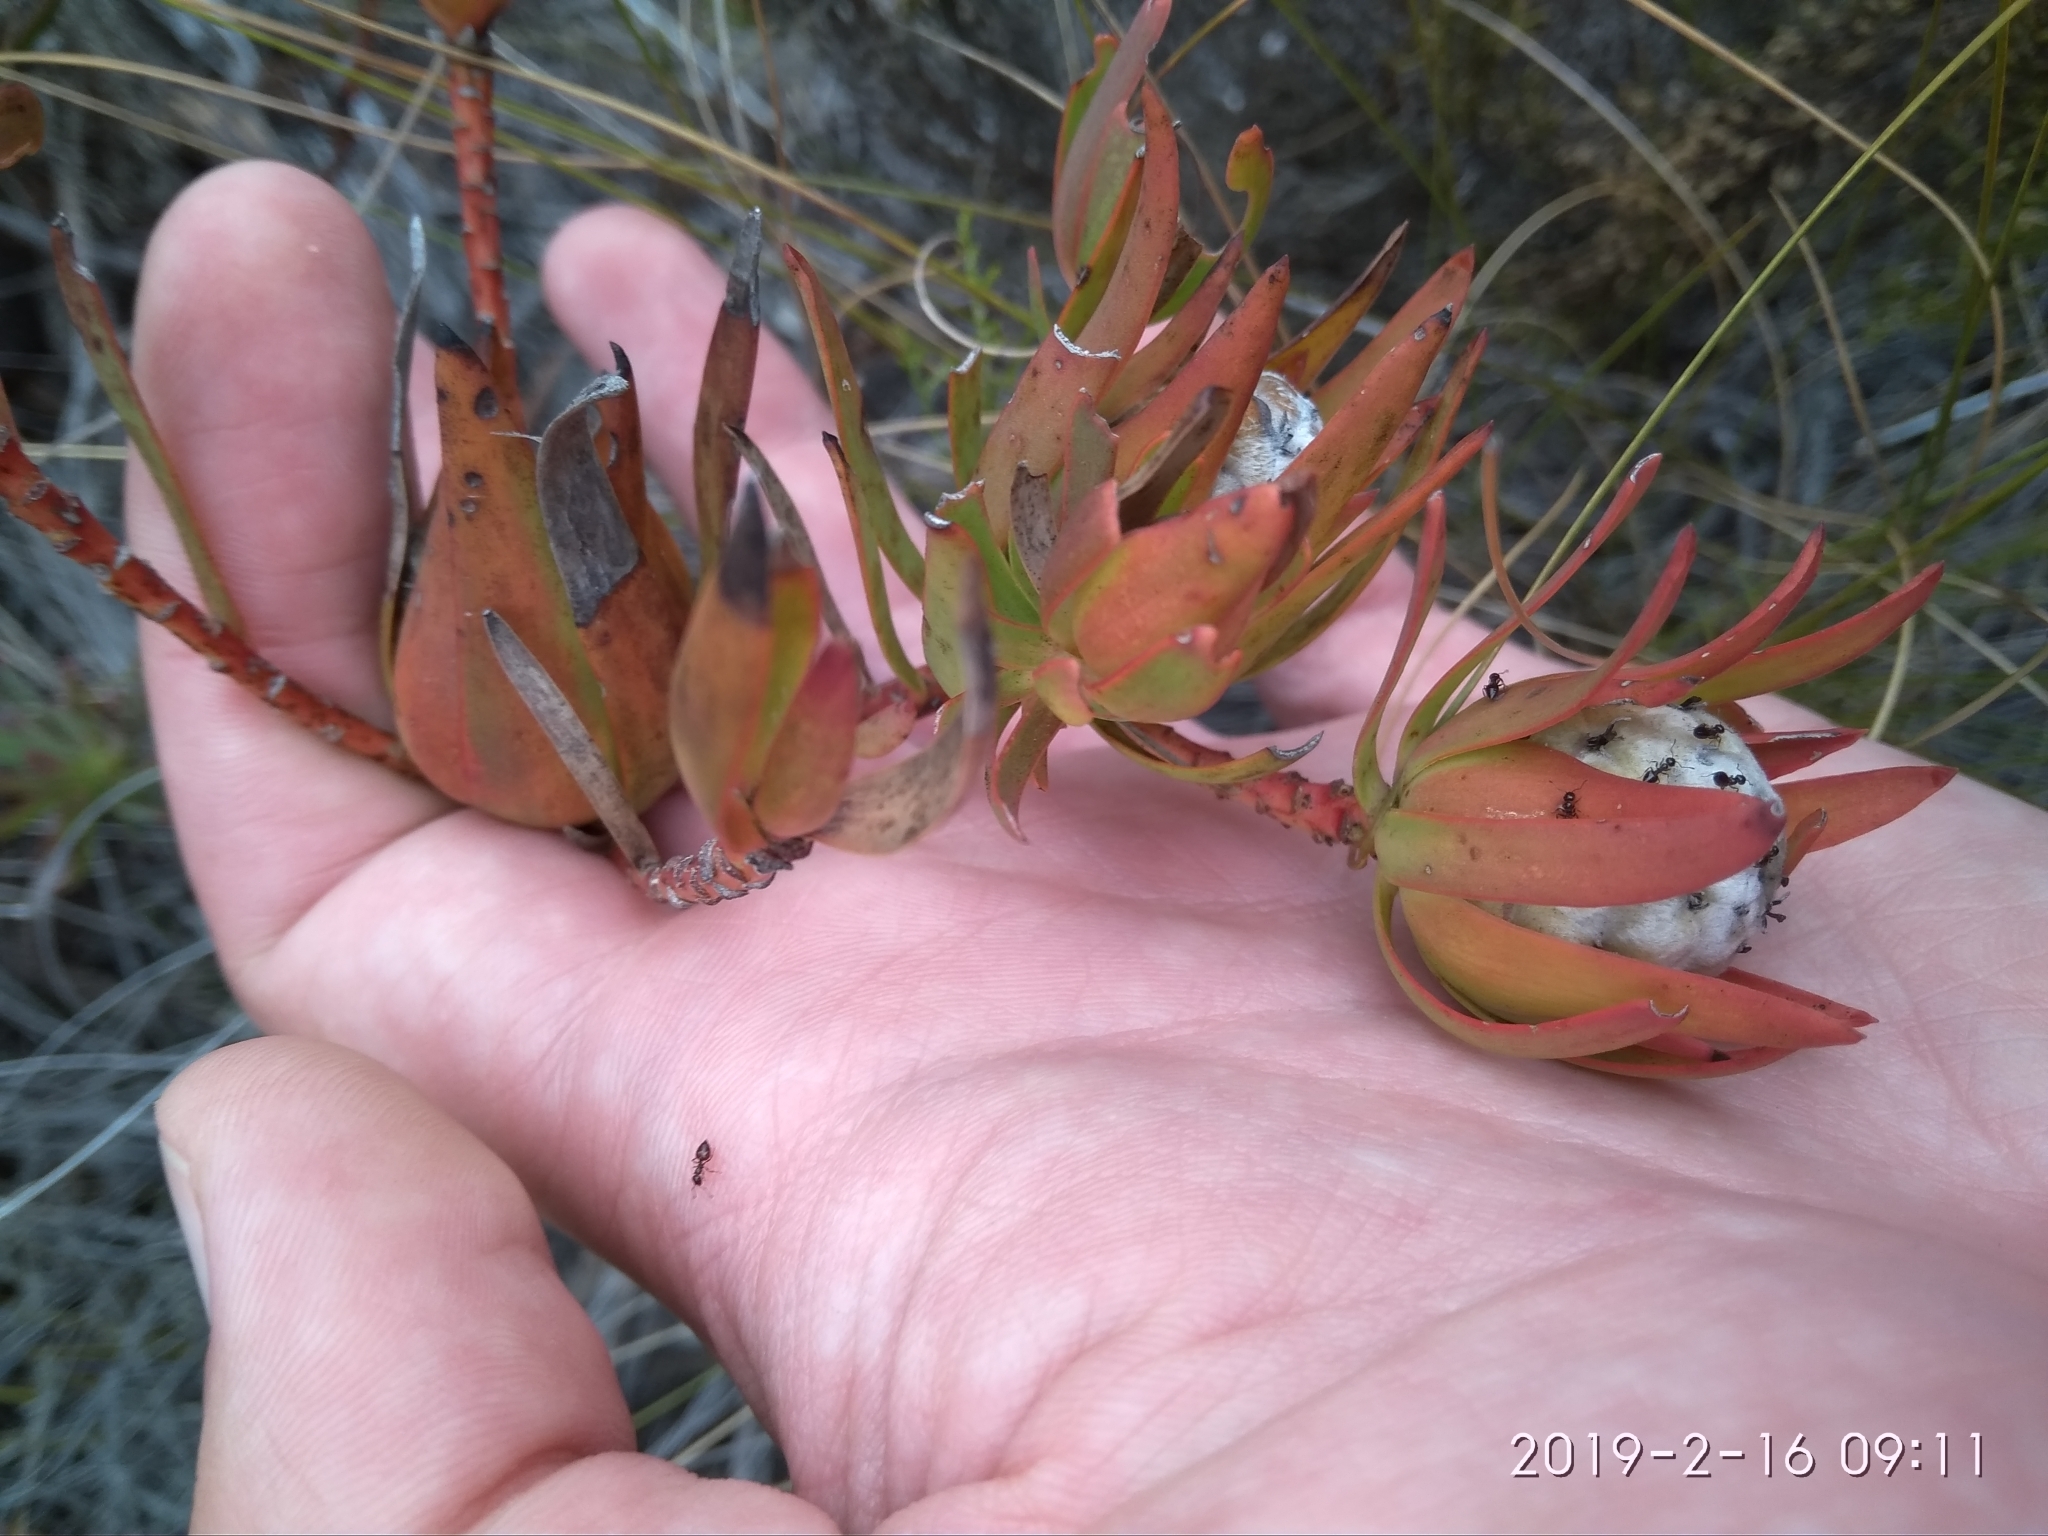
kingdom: Plantae
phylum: Tracheophyta
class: Magnoliopsida
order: Proteales
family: Proteaceae
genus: Leucadendron
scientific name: Leucadendron salignum
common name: Common sunshine conebush
